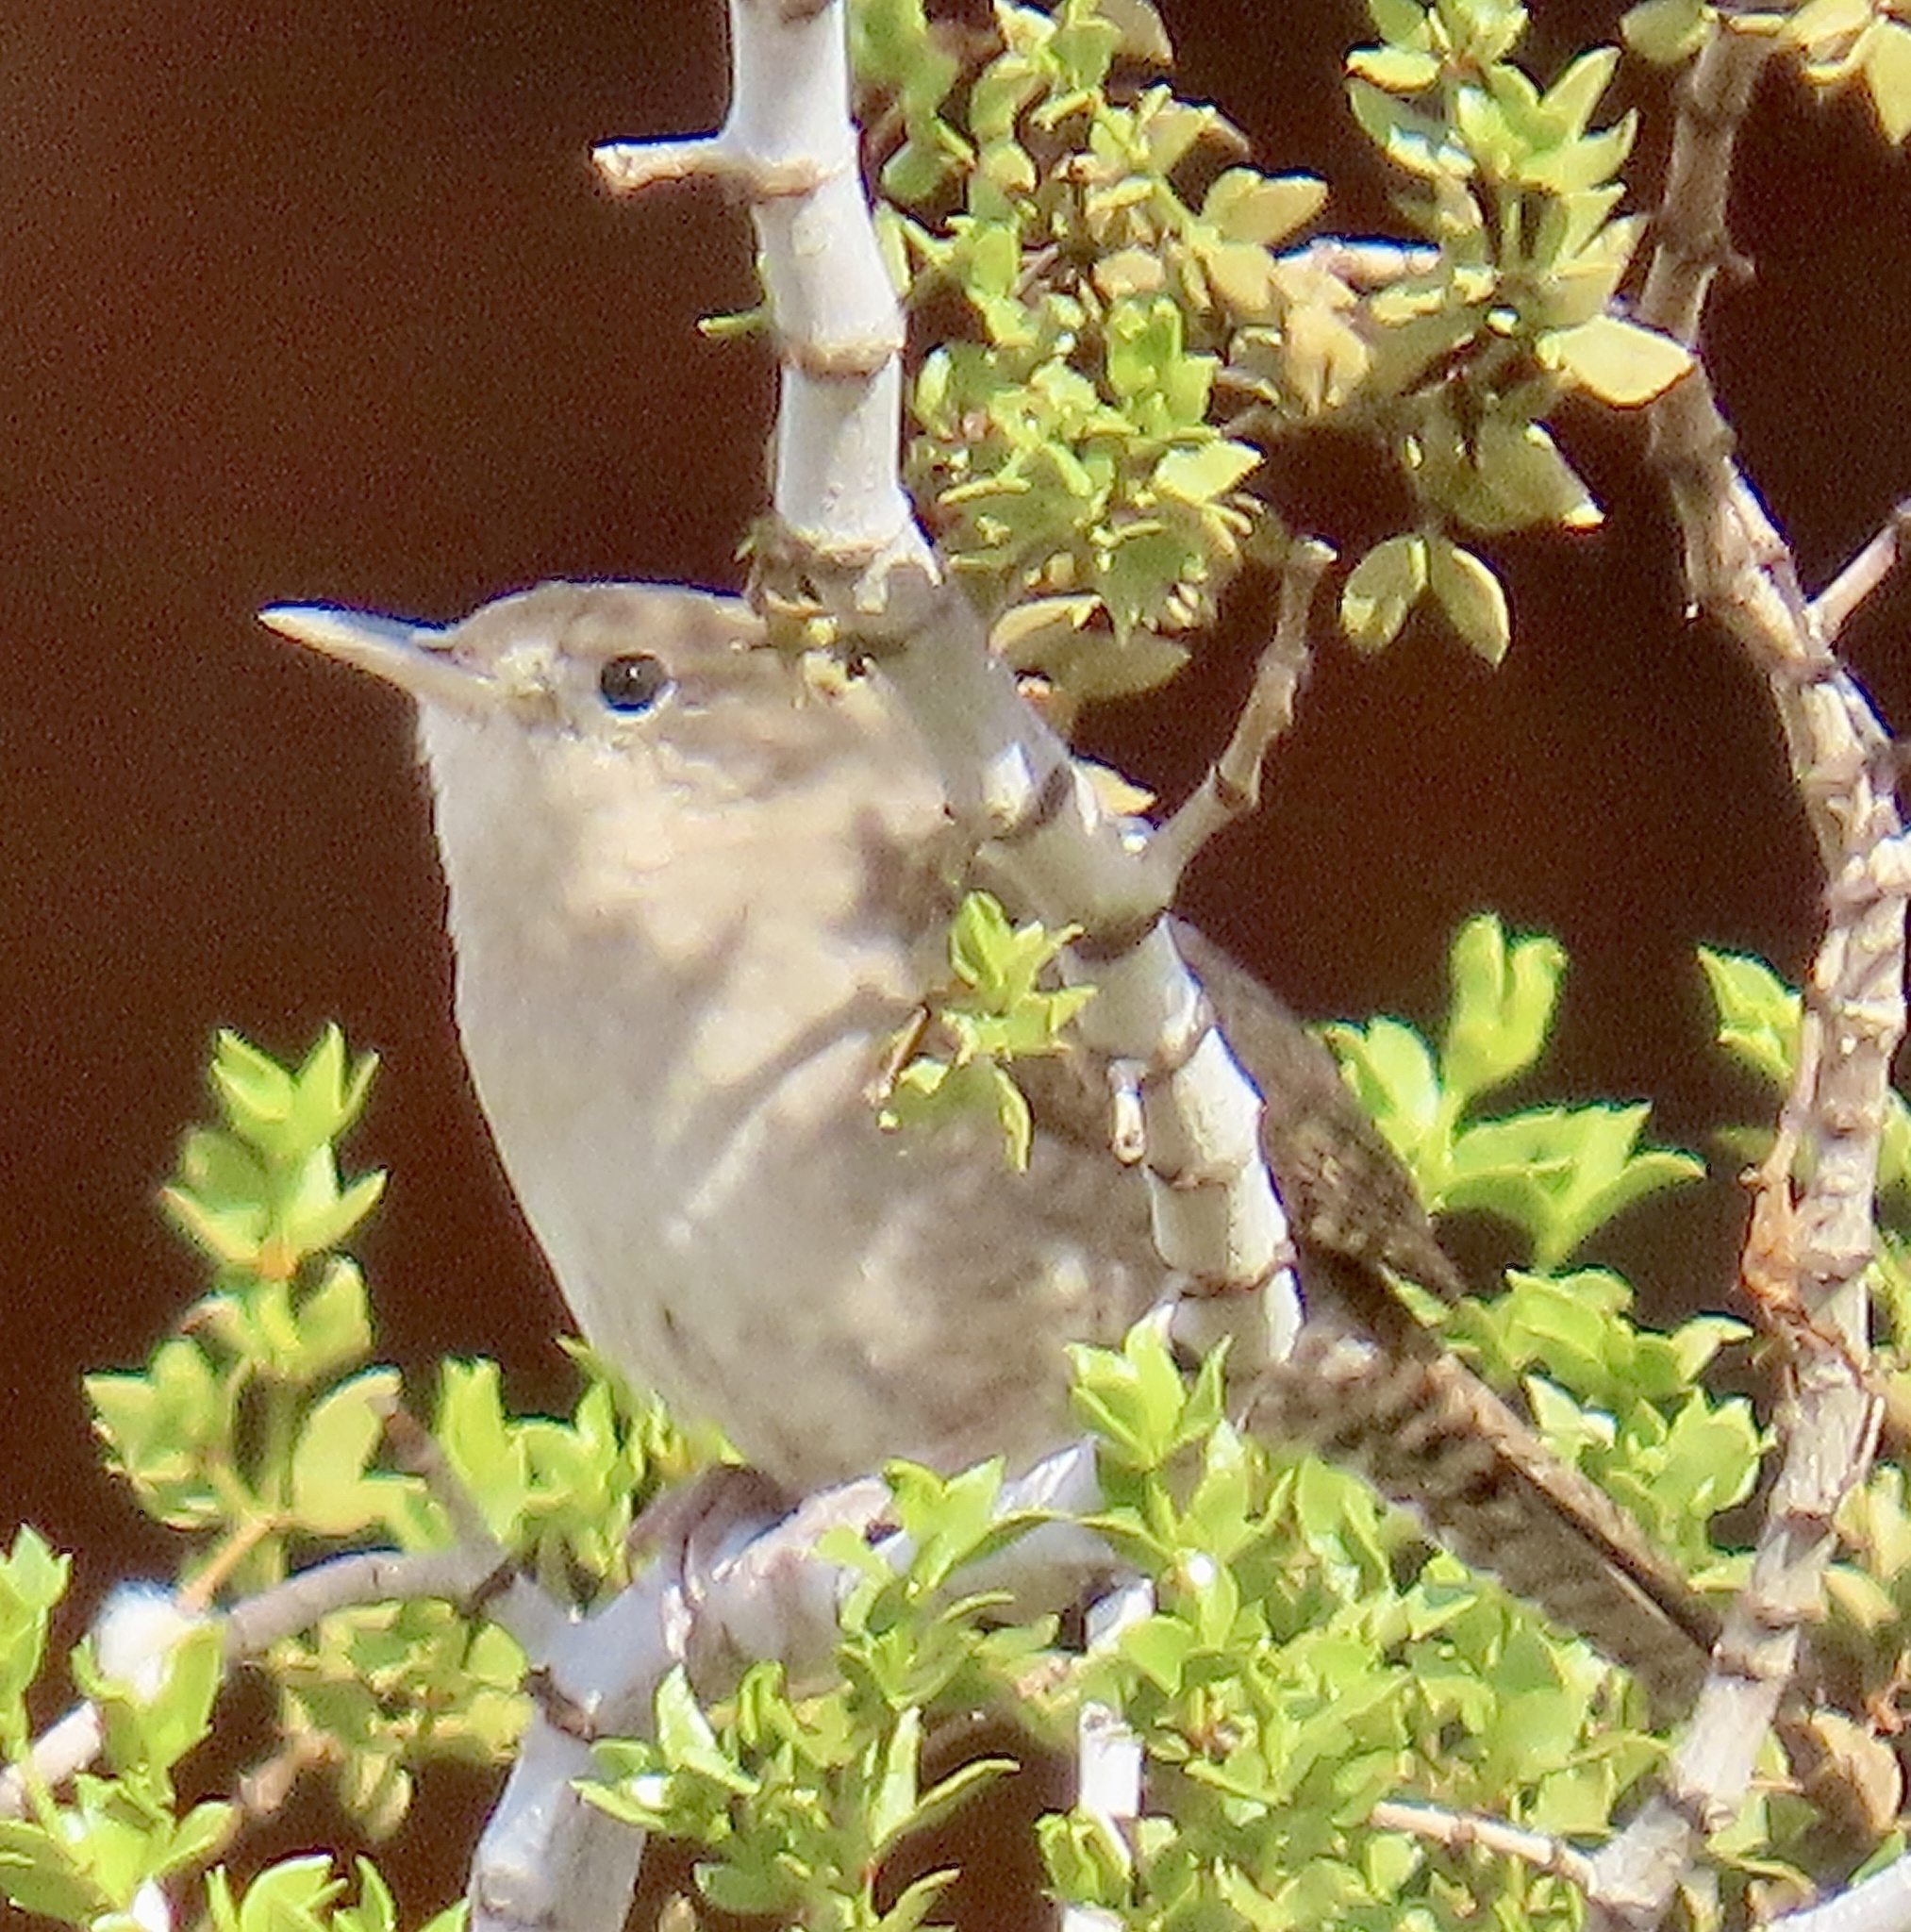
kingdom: Animalia
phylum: Chordata
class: Aves
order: Passeriformes
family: Troglodytidae
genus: Troglodytes
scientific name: Troglodytes aedon
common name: House wren
